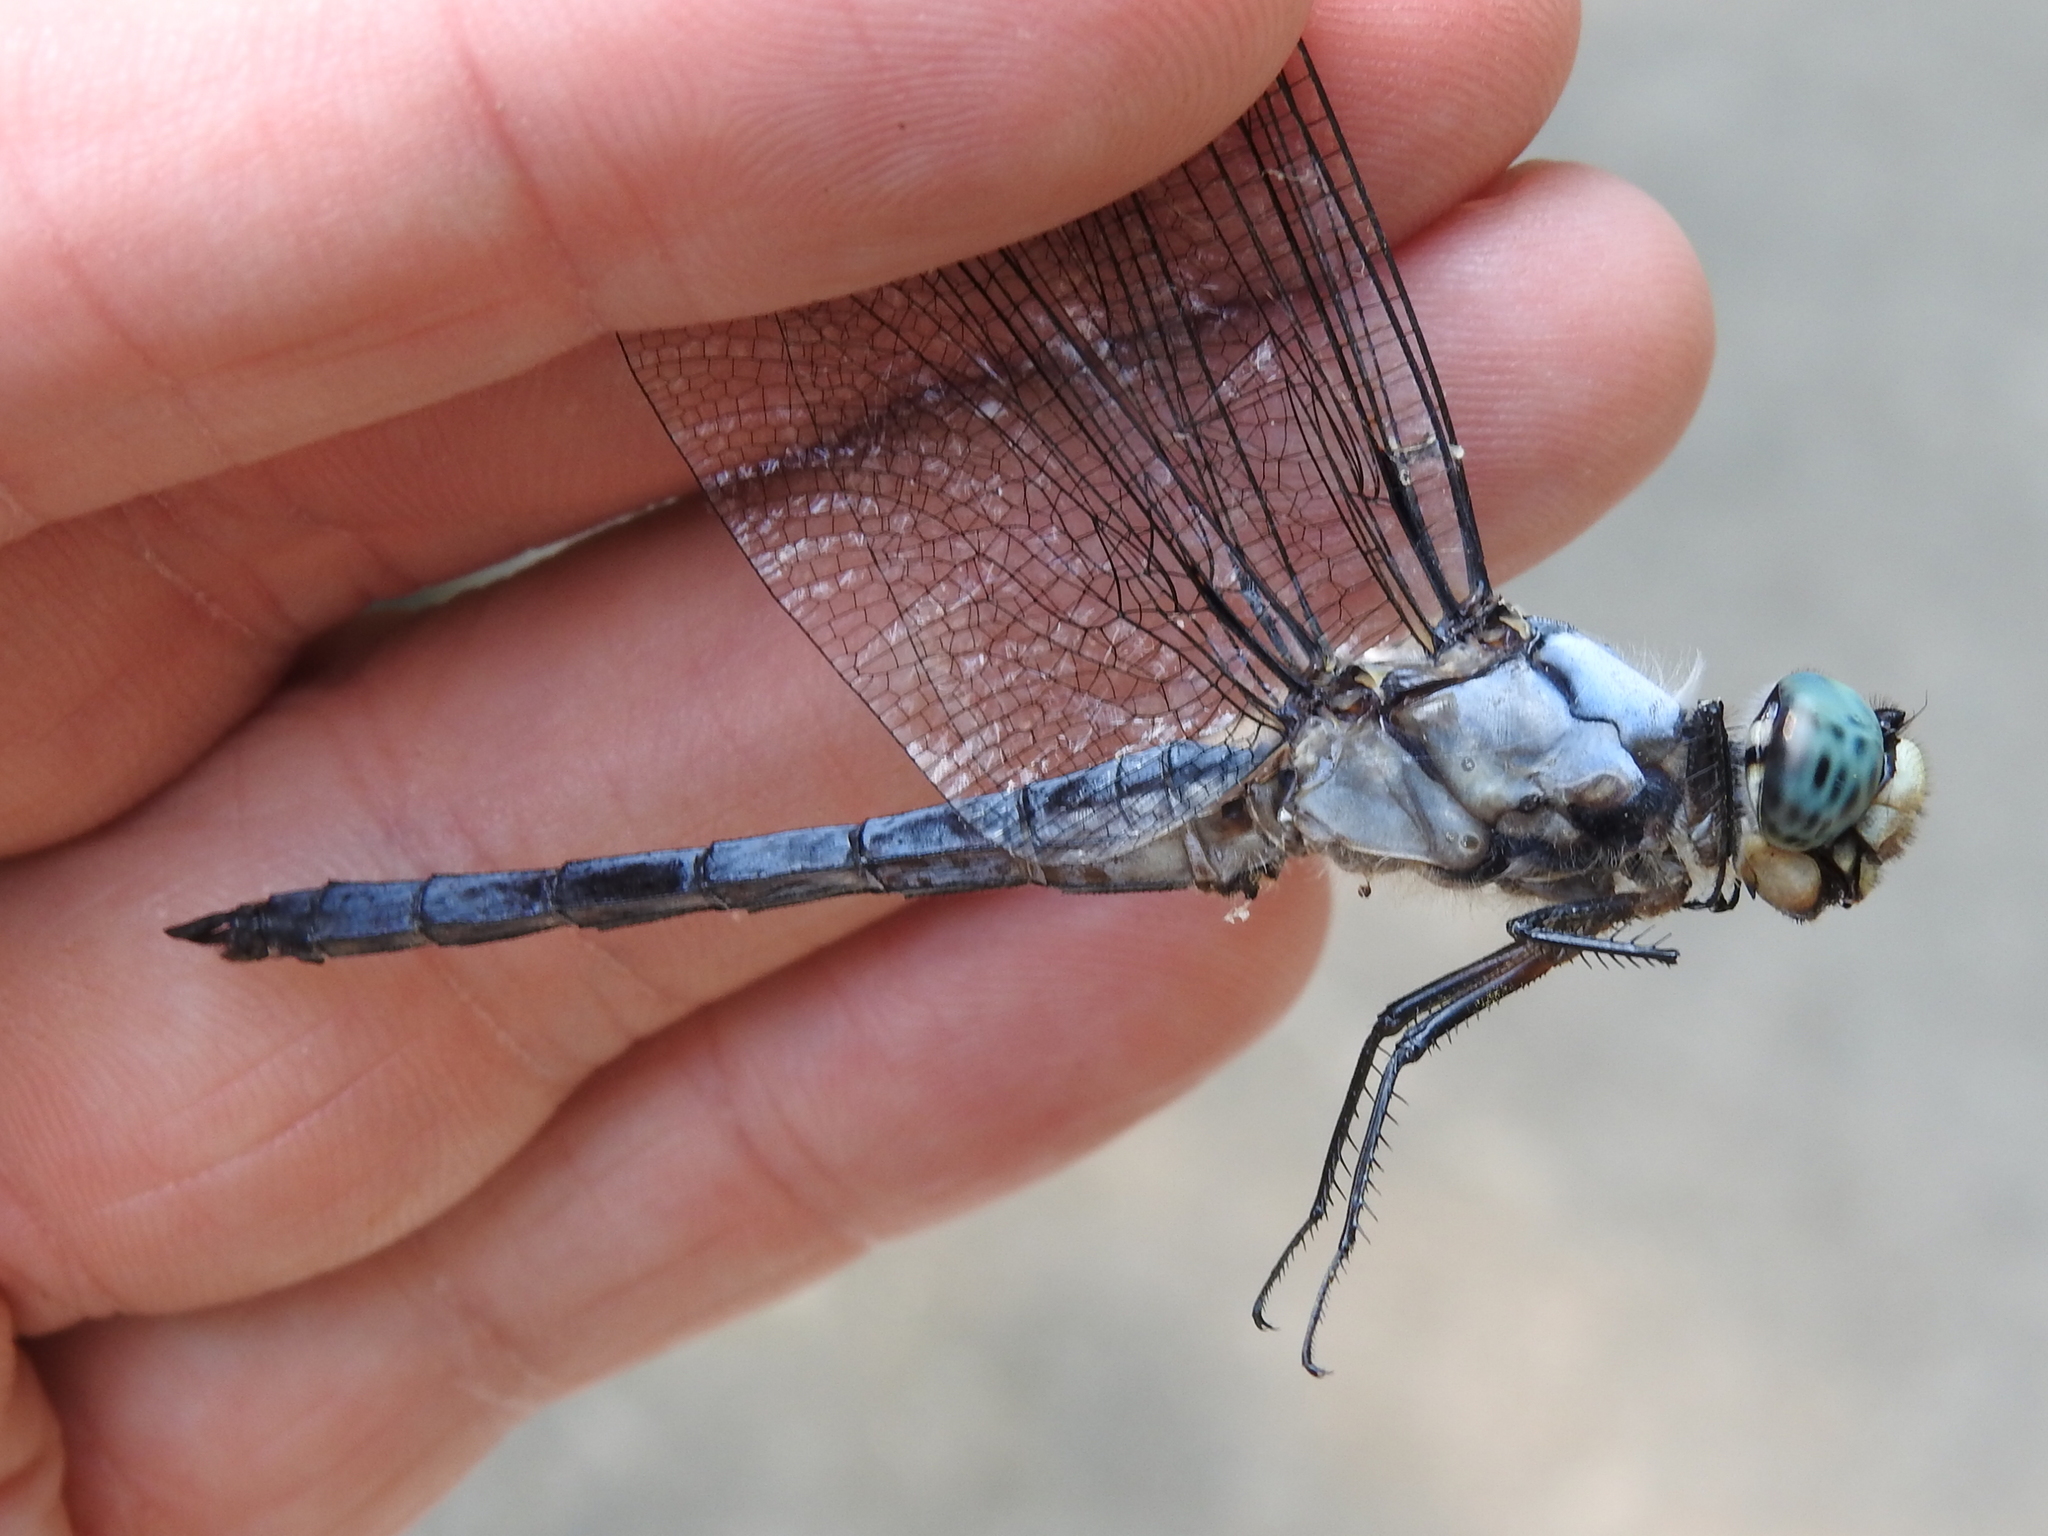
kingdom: Animalia
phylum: Arthropoda
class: Insecta
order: Odonata
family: Libellulidae
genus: Libellula
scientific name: Libellula vibrans
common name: Great blue skimmer
